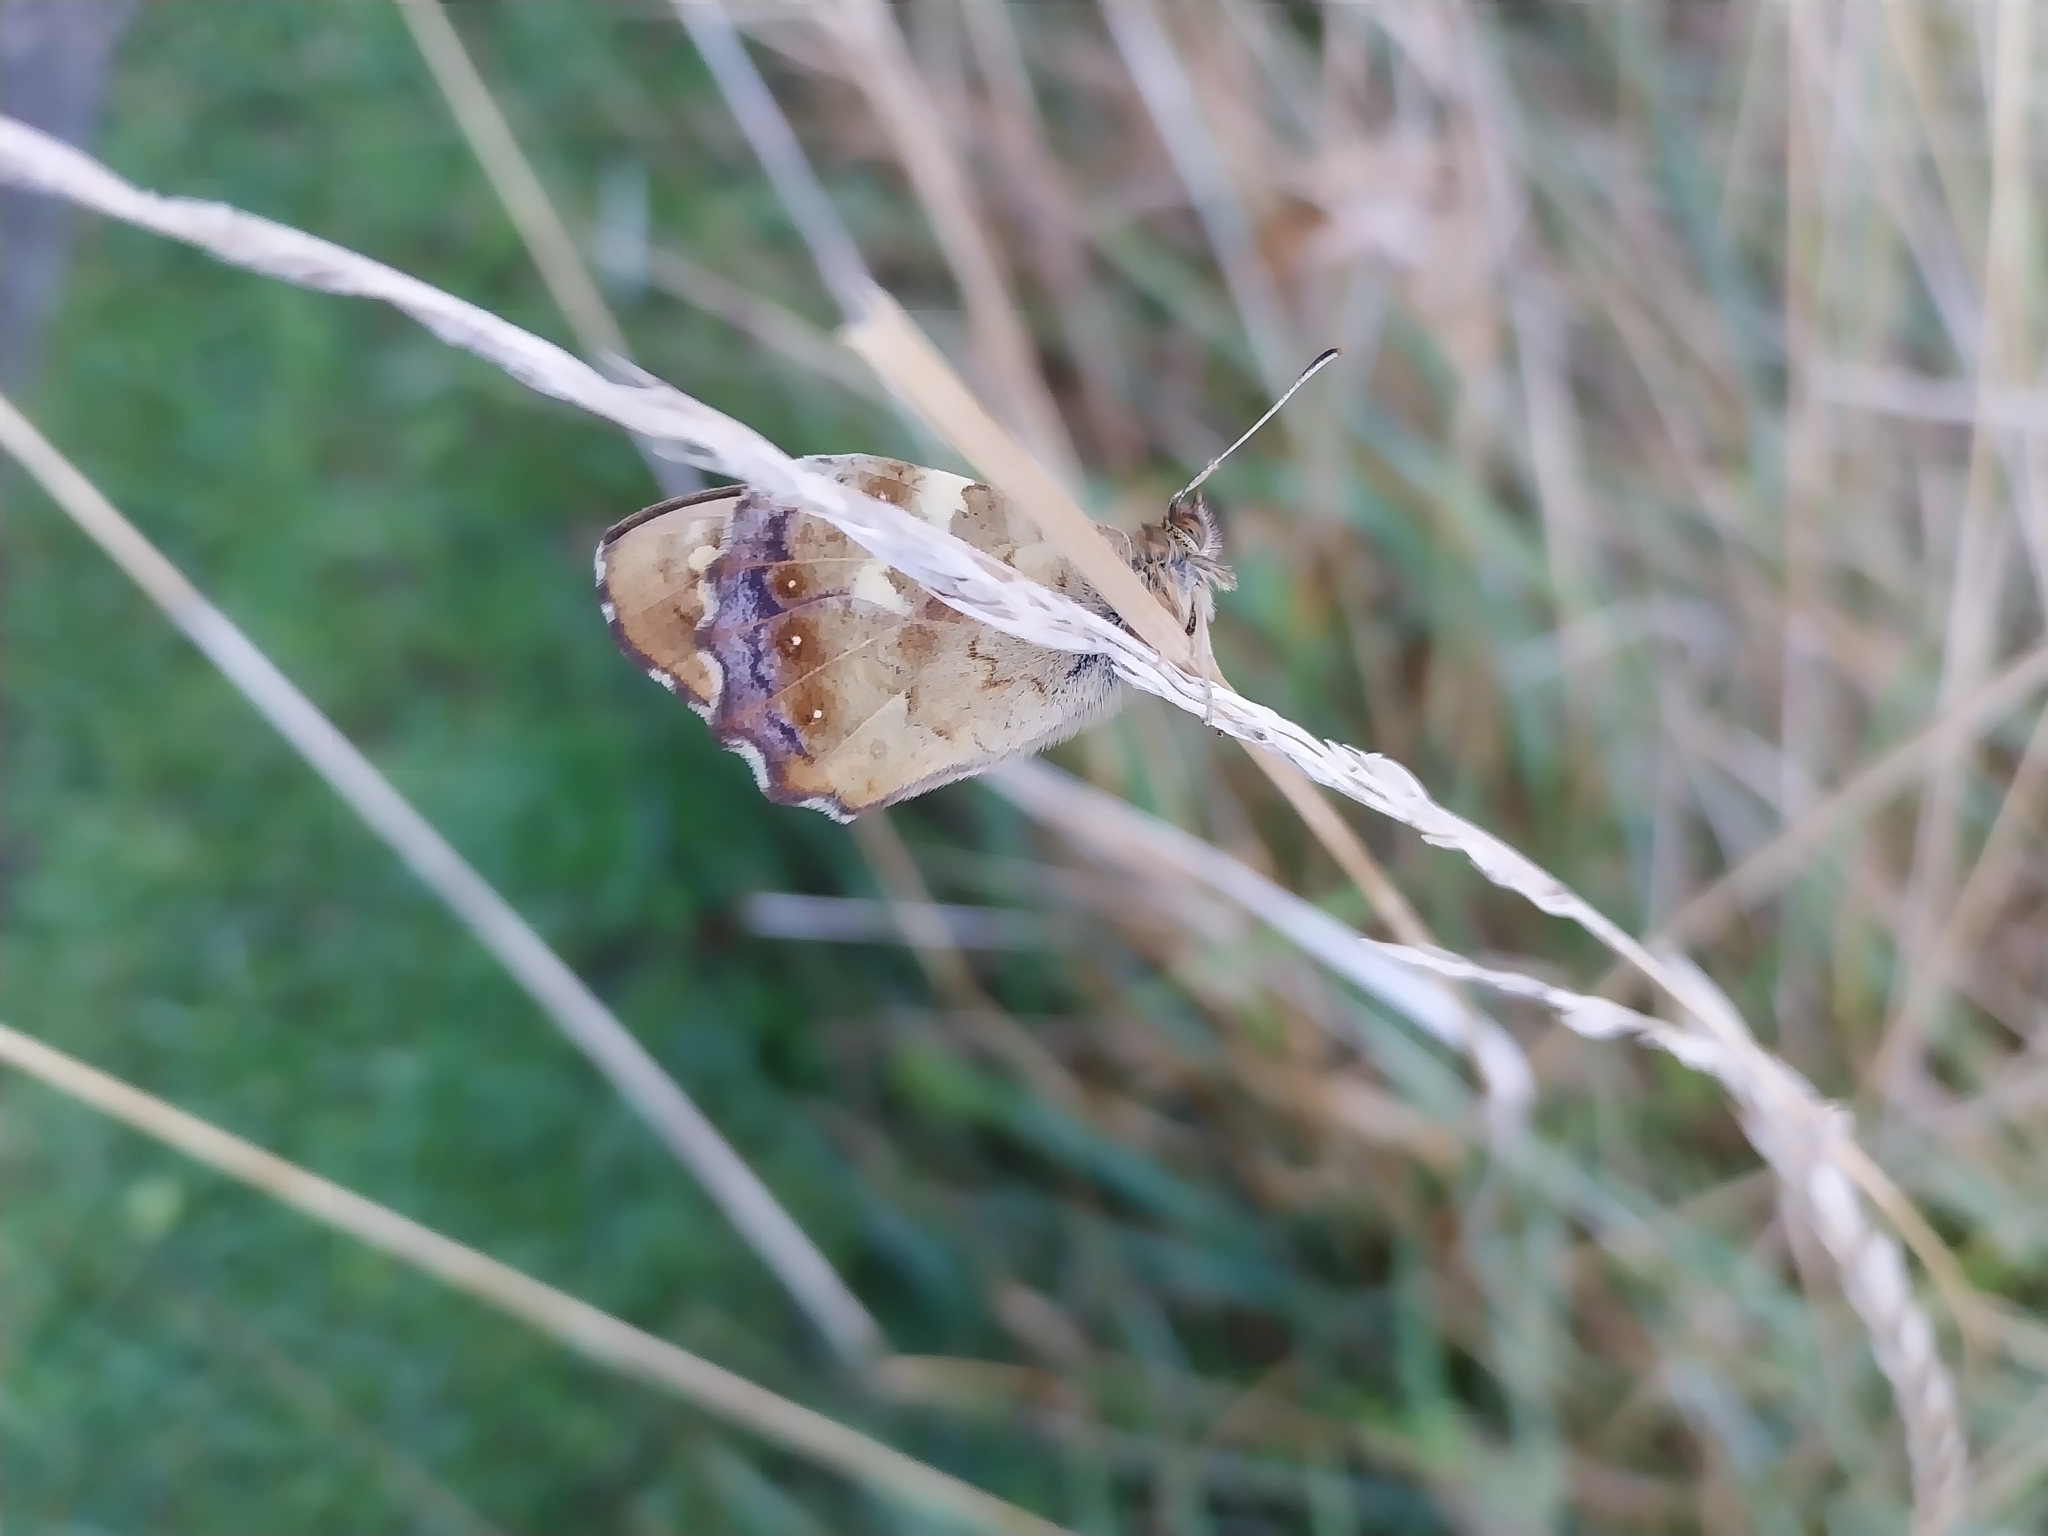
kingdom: Animalia
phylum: Arthropoda
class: Insecta
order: Lepidoptera
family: Nymphalidae
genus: Pararge
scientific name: Pararge aegeria
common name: Speckled wood
